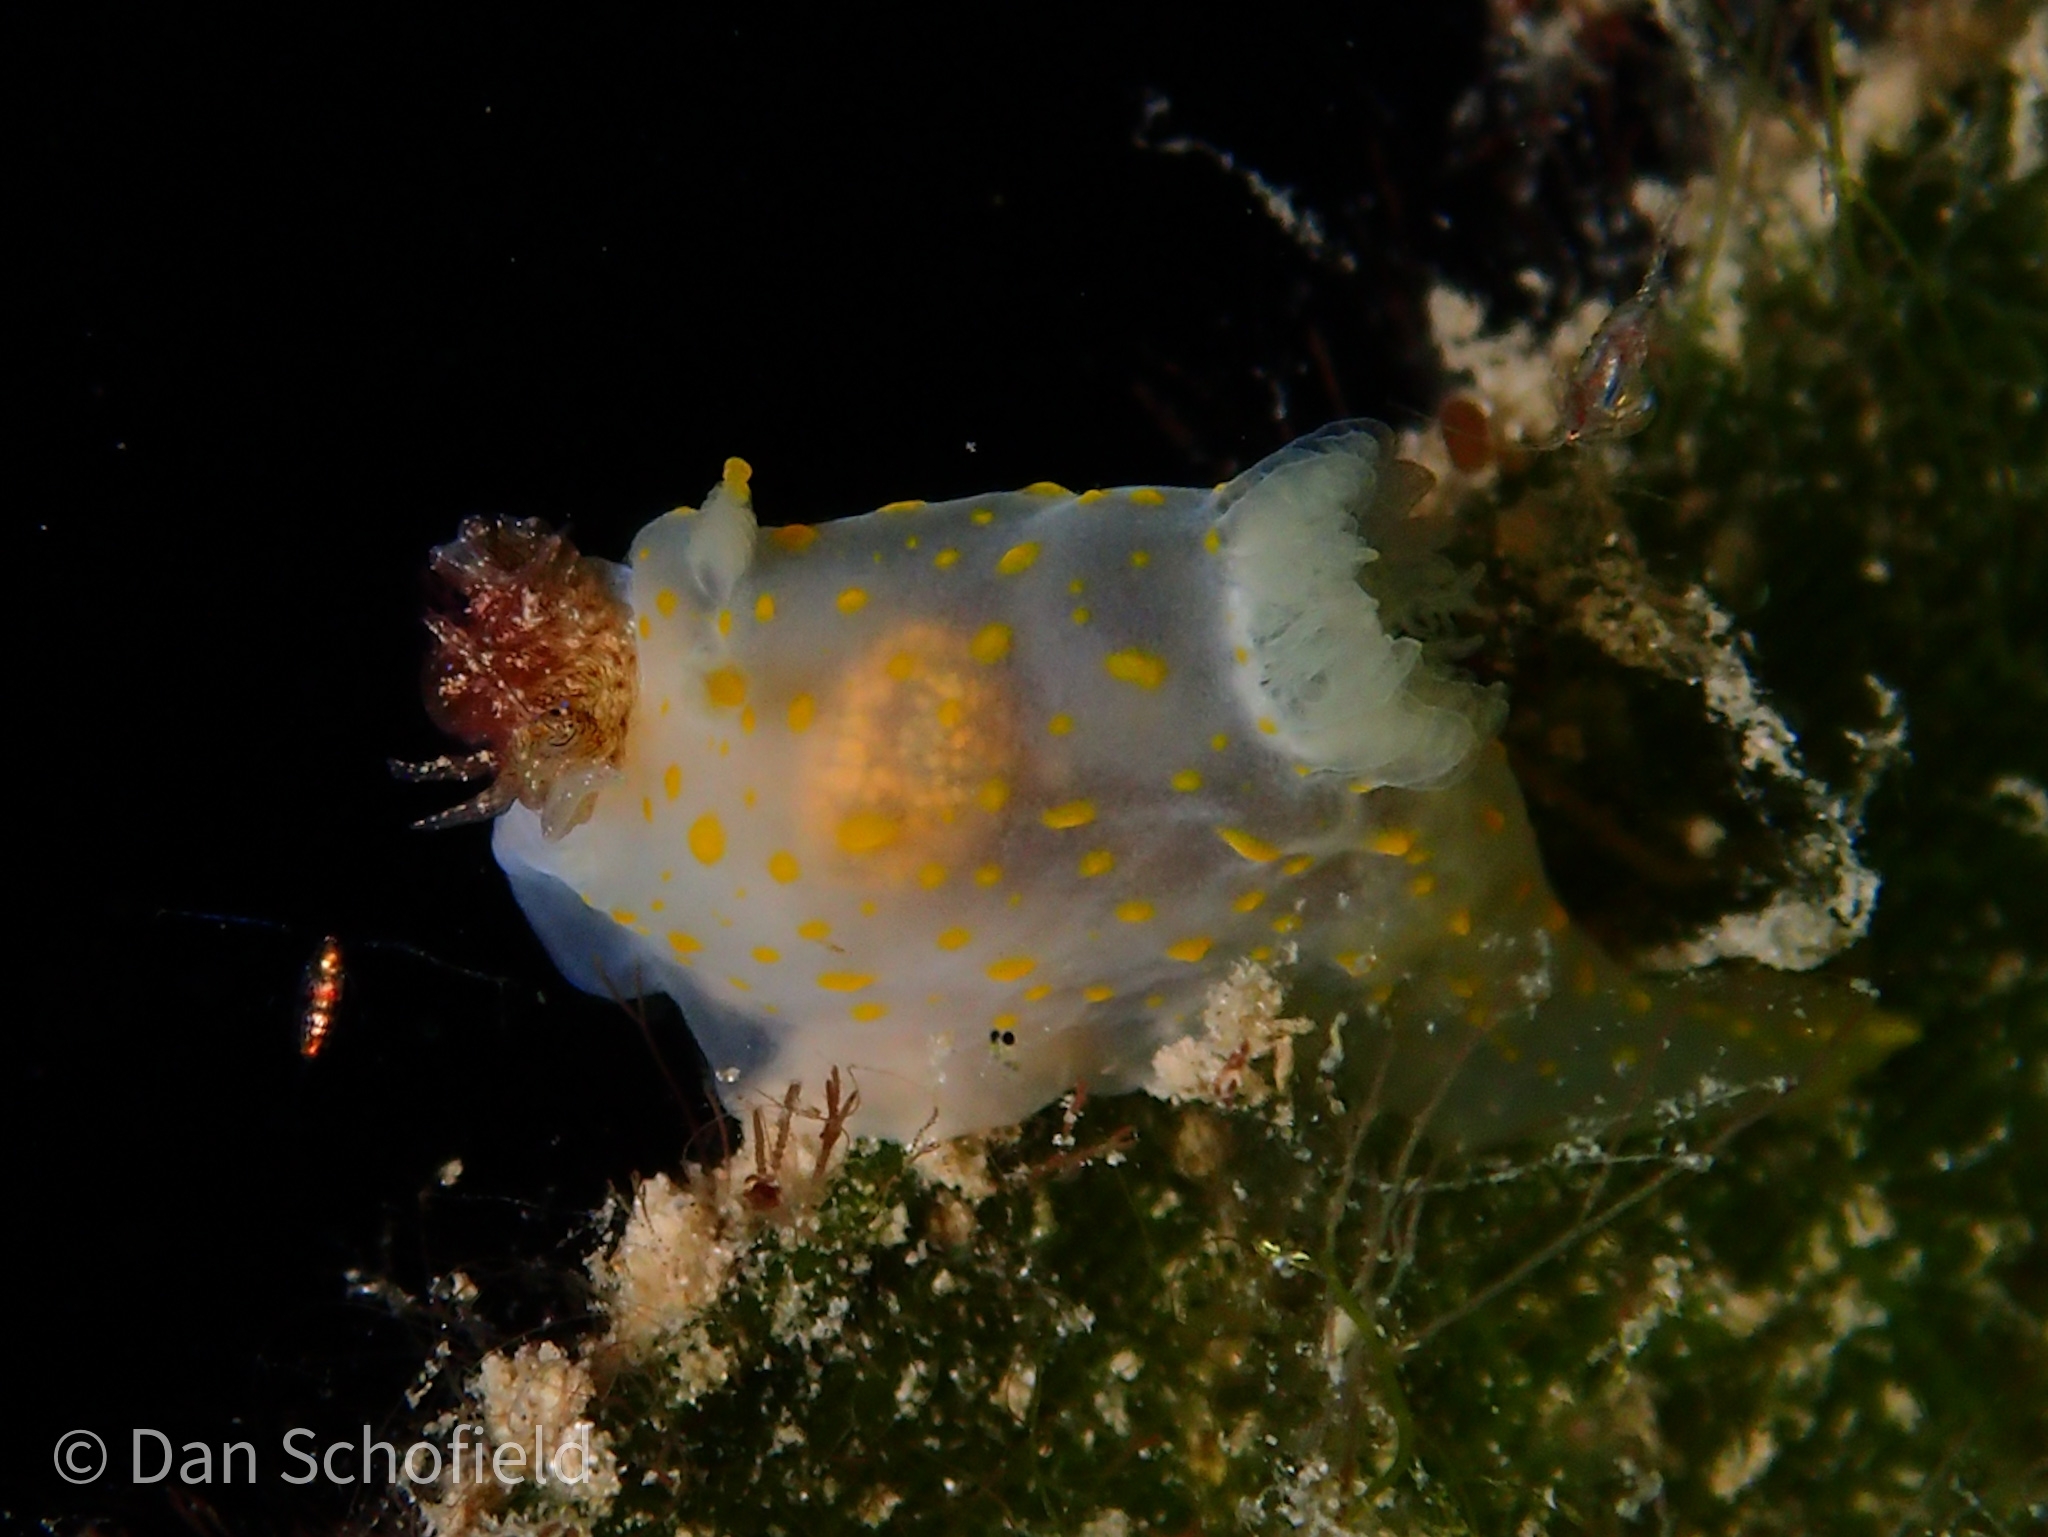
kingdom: Animalia
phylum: Mollusca
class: Gastropoda
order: Nudibranchia
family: Polyceridae
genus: Gymnodoris
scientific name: Gymnodoris
